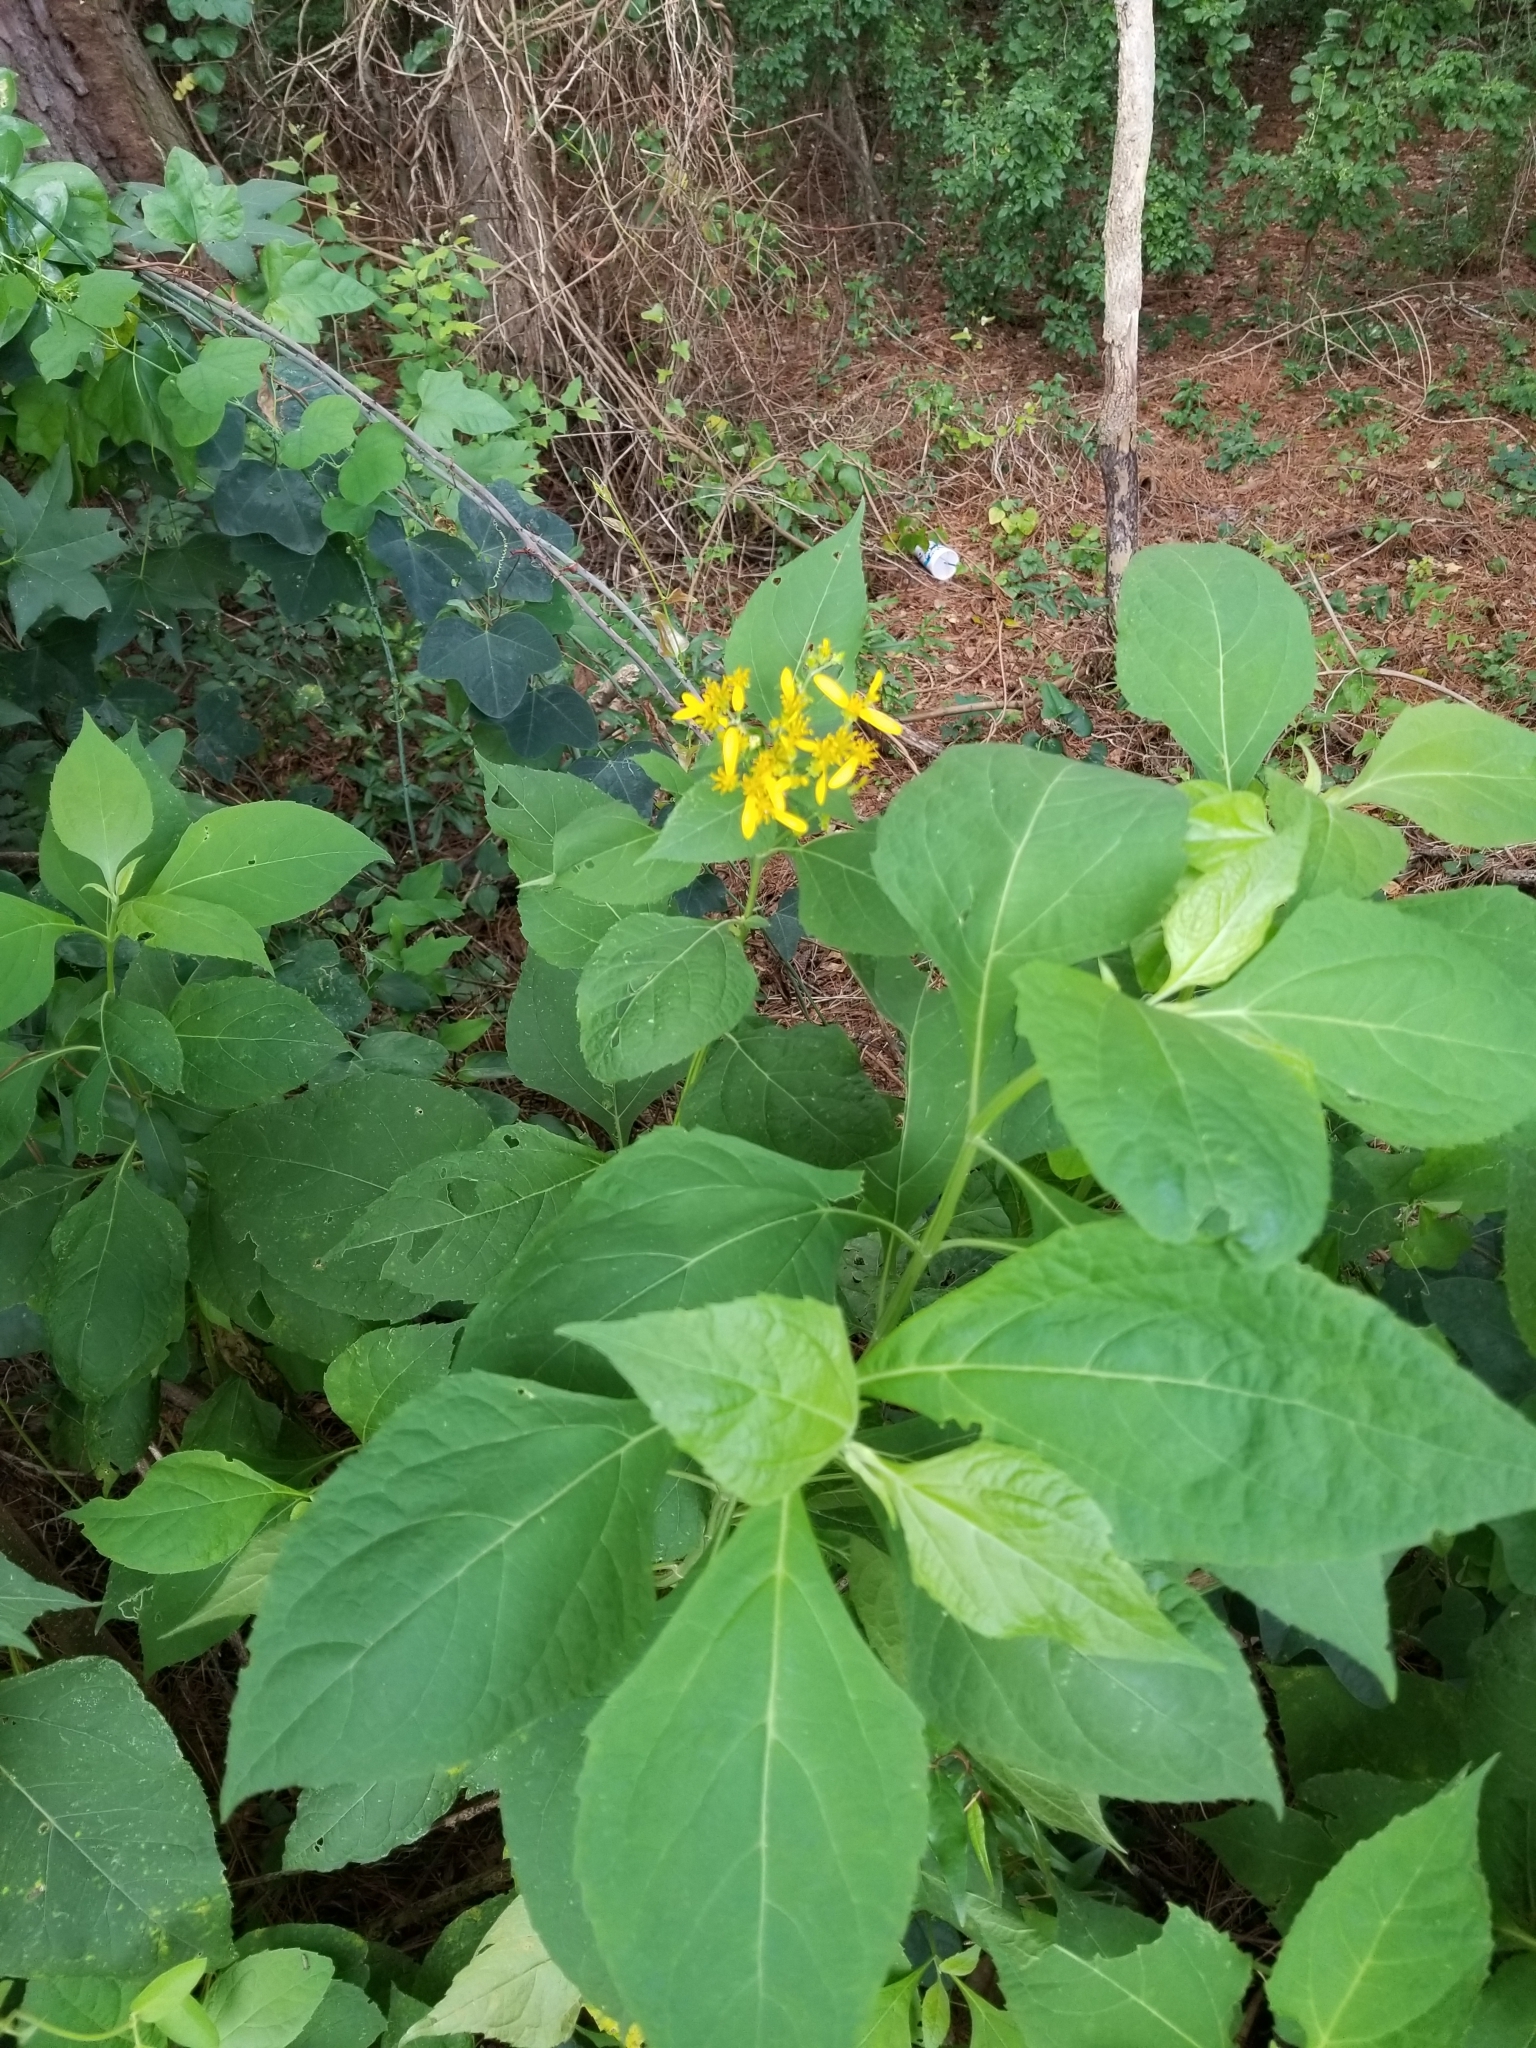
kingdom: Plantae
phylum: Tracheophyta
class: Magnoliopsida
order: Asterales
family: Asteraceae
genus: Verbesina
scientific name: Verbesina occidentalis
